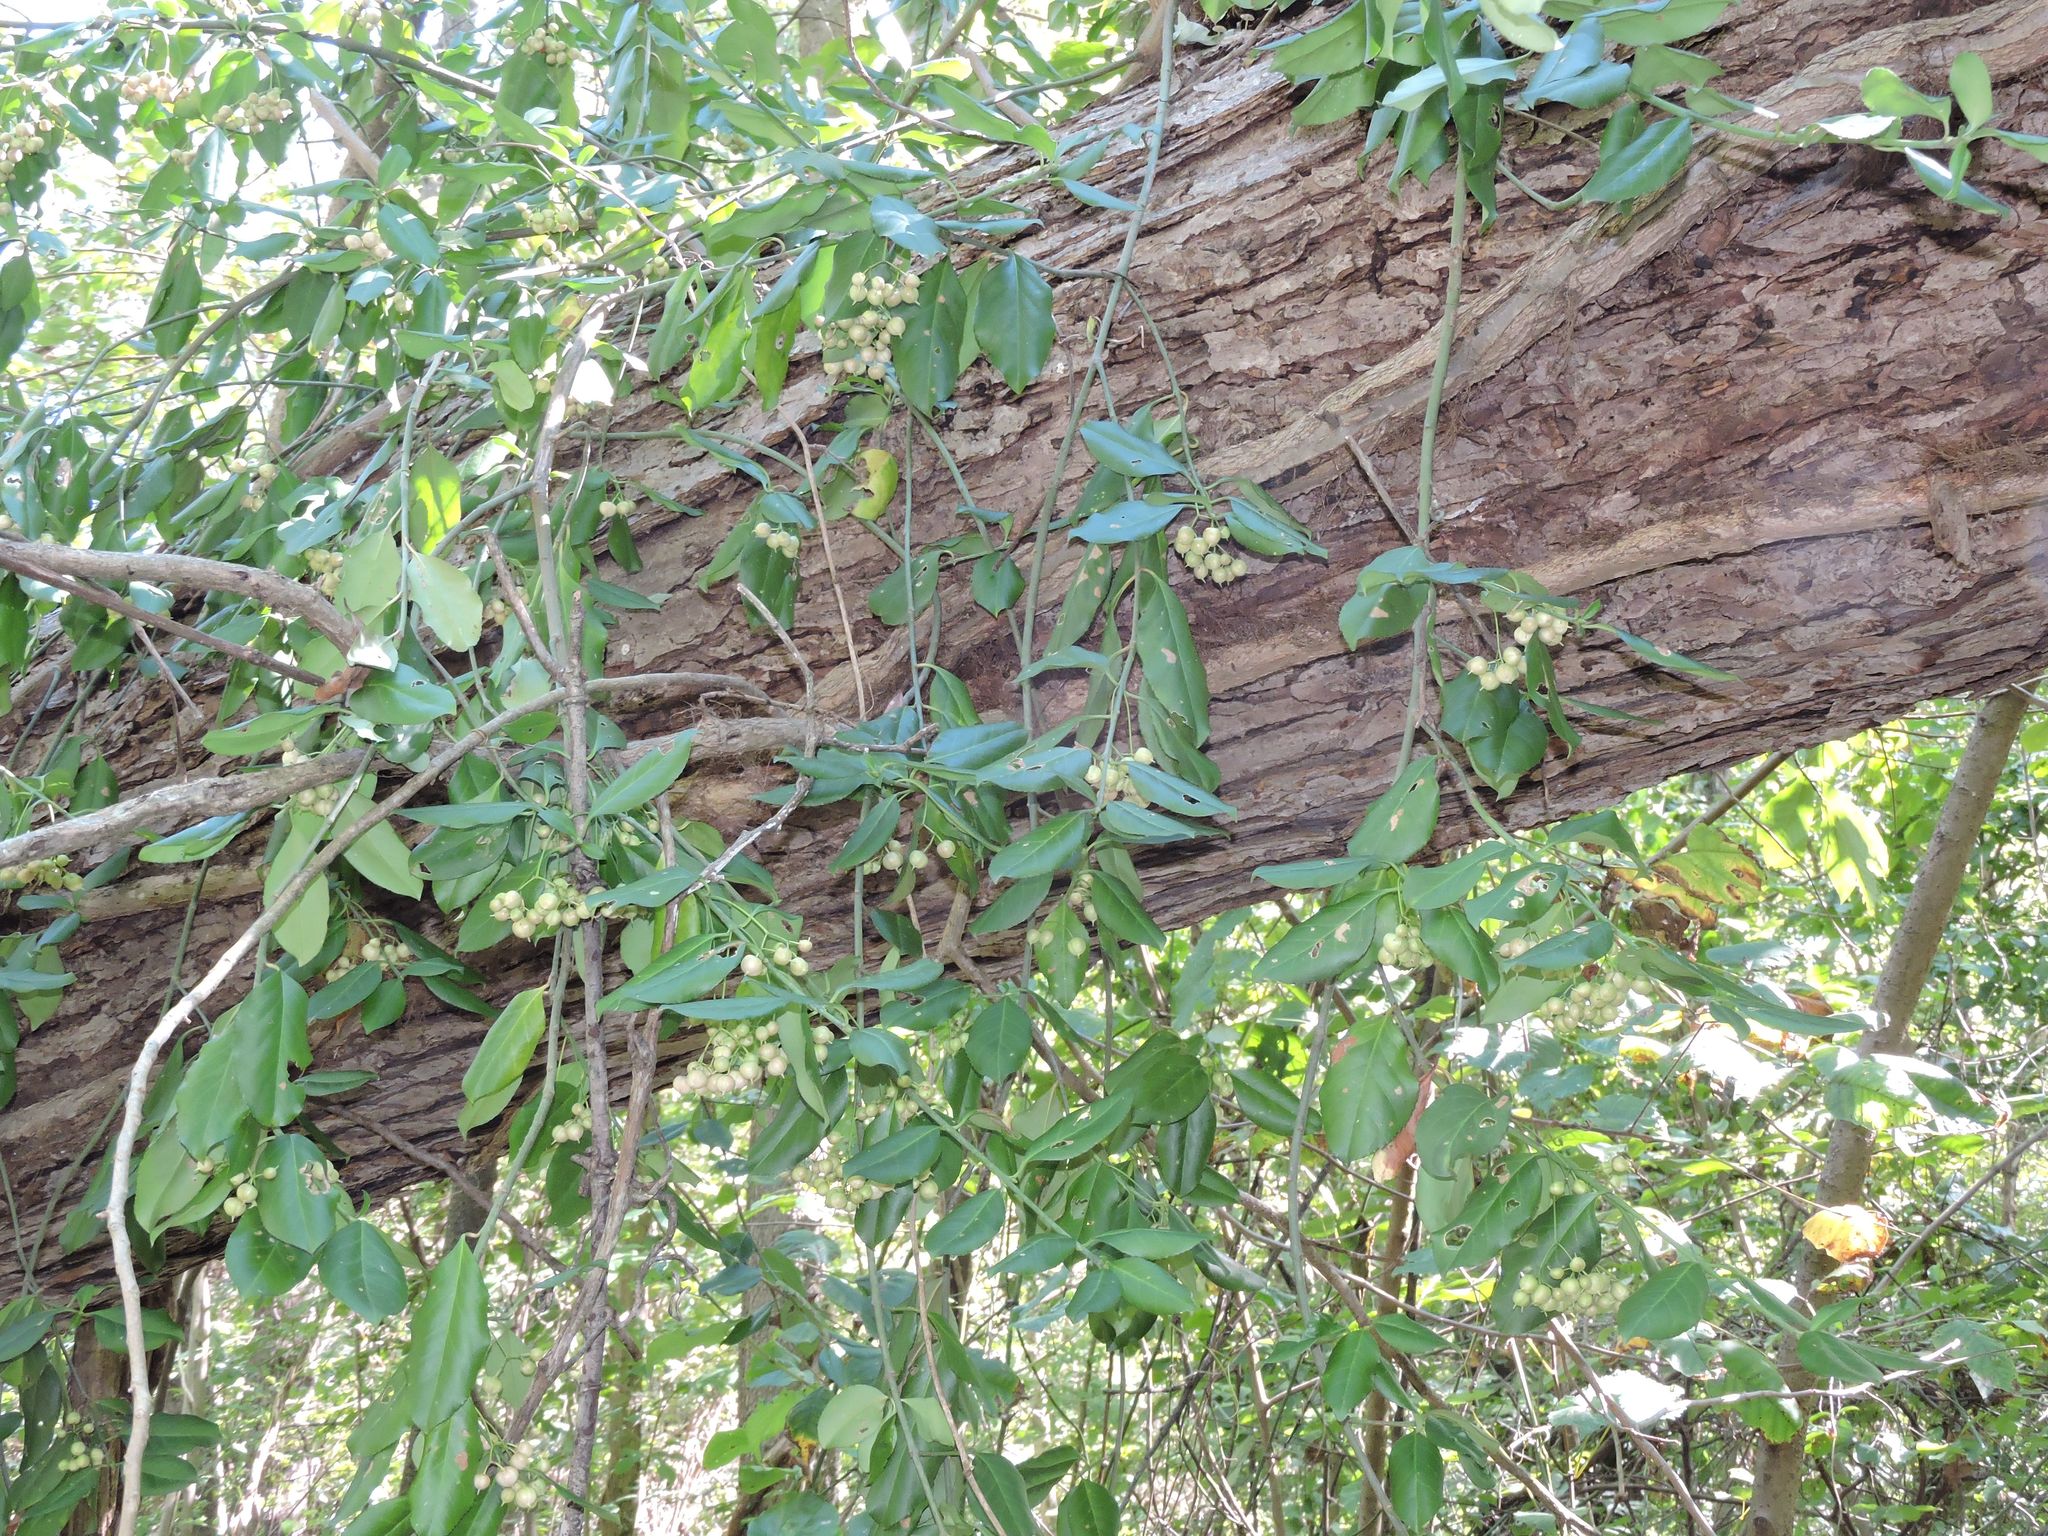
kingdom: Plantae
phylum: Tracheophyta
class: Magnoliopsida
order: Celastrales
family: Celastraceae
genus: Euonymus
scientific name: Euonymus fortunei
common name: Climbing euonymus
